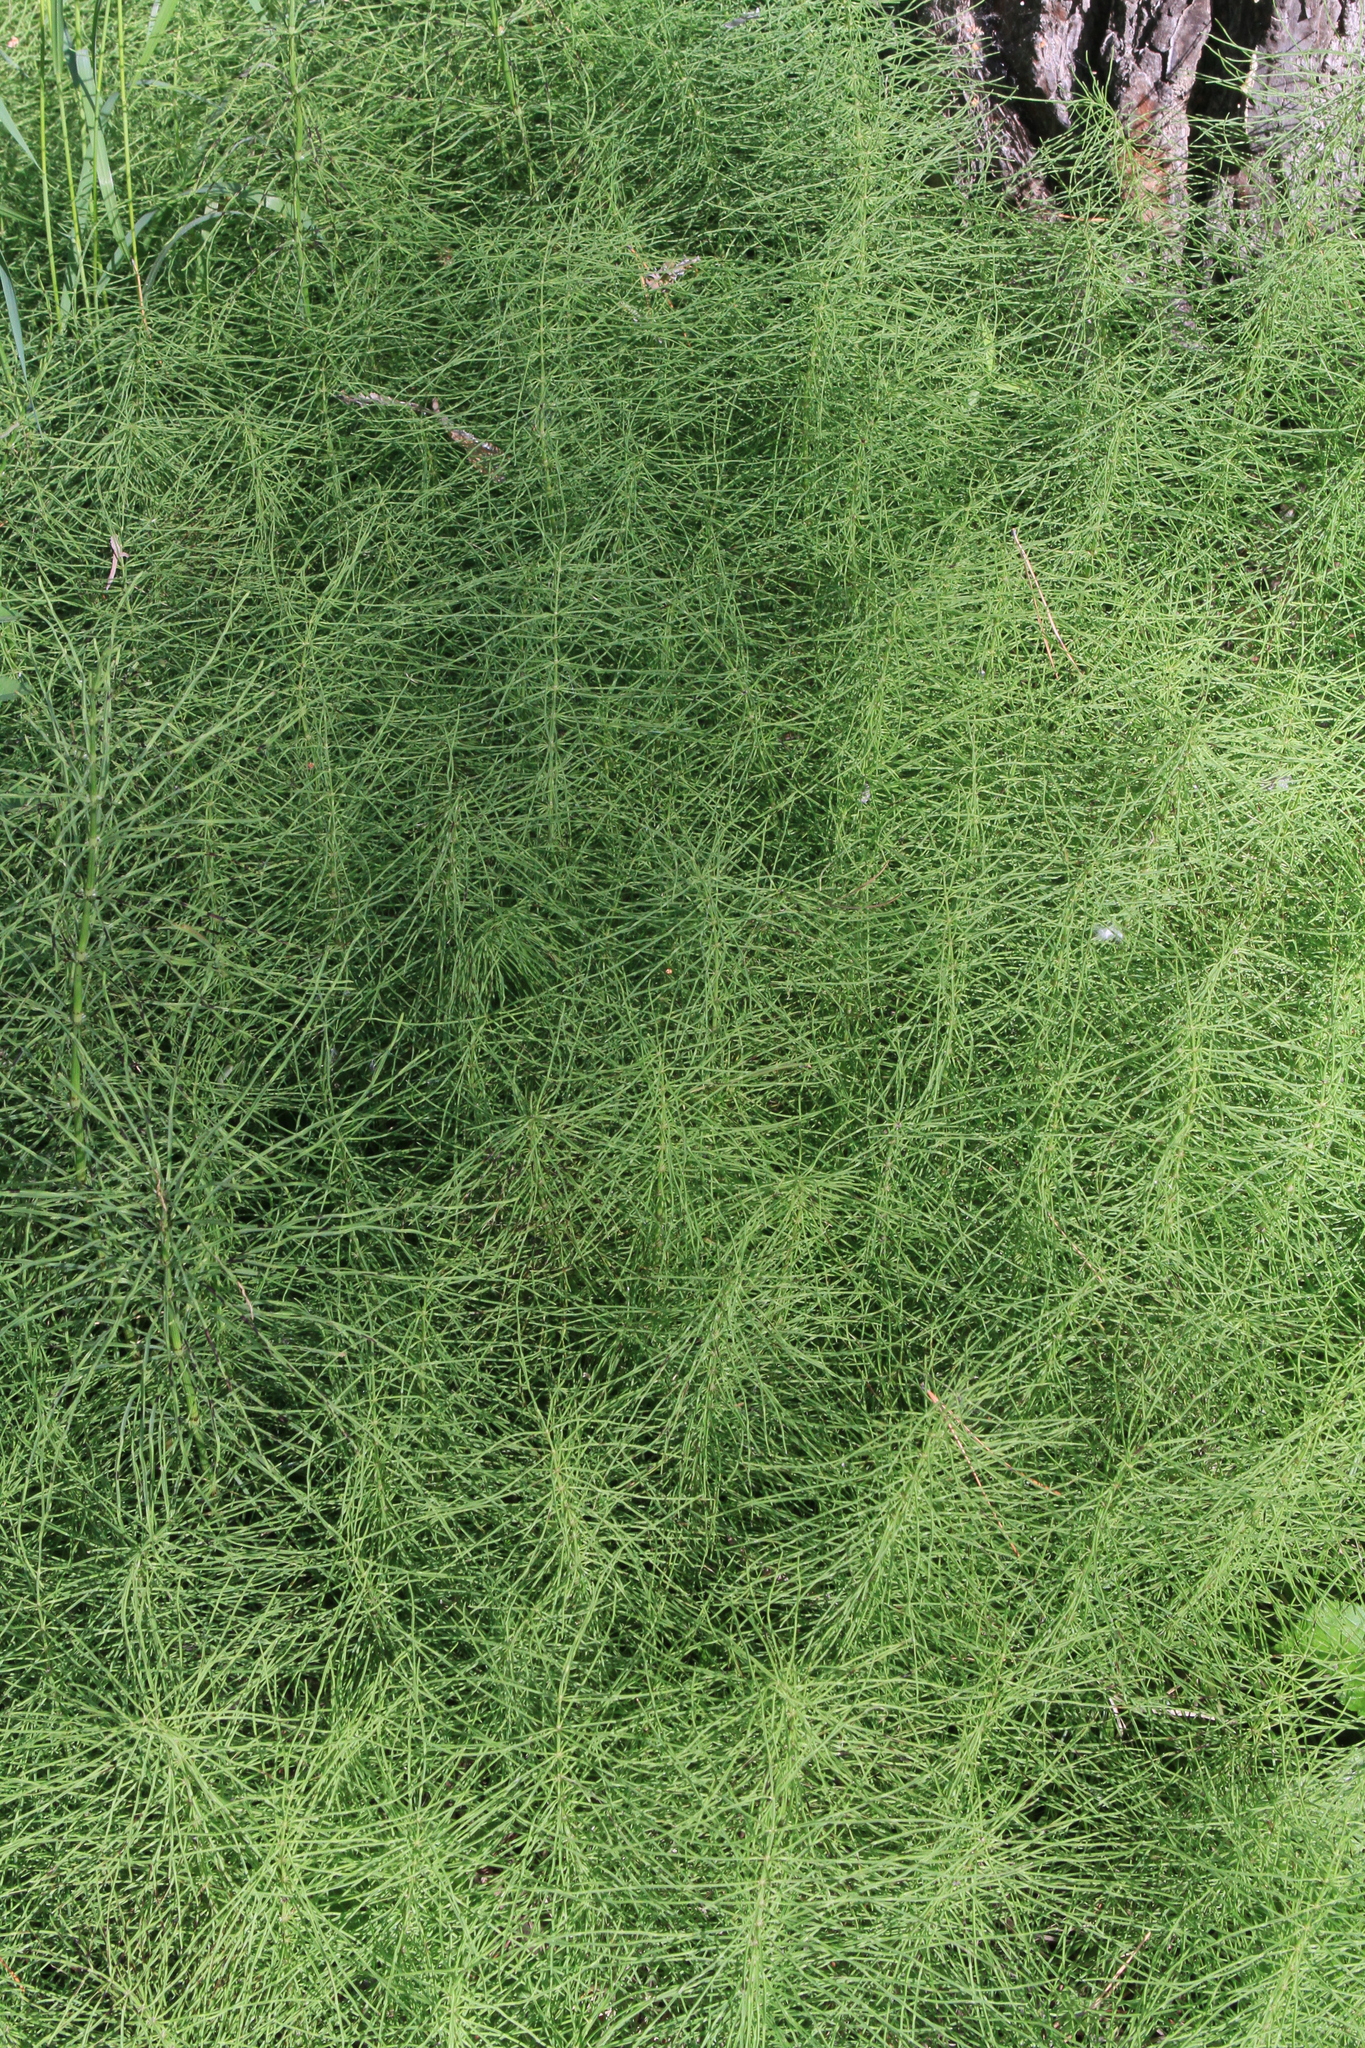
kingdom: Plantae
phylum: Tracheophyta
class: Polypodiopsida
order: Equisetales
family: Equisetaceae
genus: Equisetum
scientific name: Equisetum pratense
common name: Meadow horsetail
